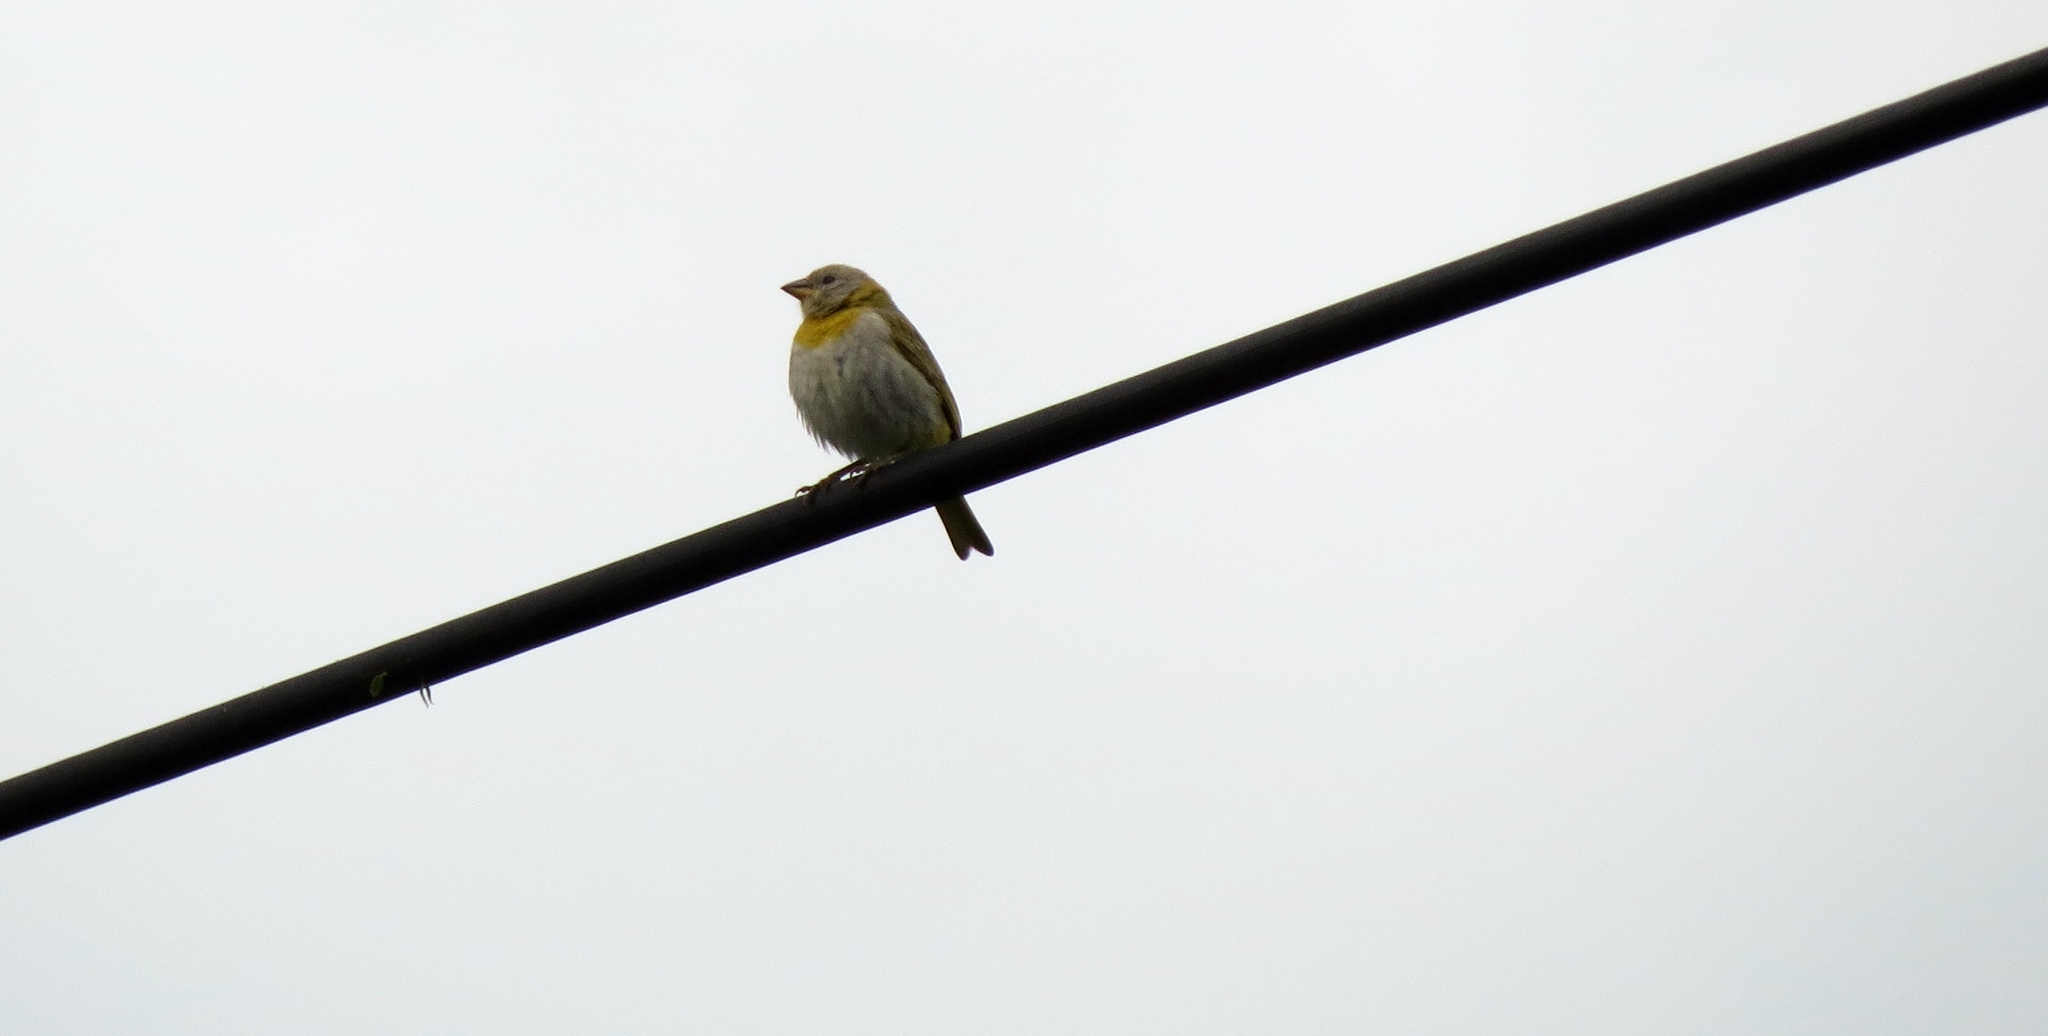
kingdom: Animalia
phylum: Chordata
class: Aves
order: Passeriformes
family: Thraupidae
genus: Sicalis
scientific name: Sicalis flaveola
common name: Saffron finch
